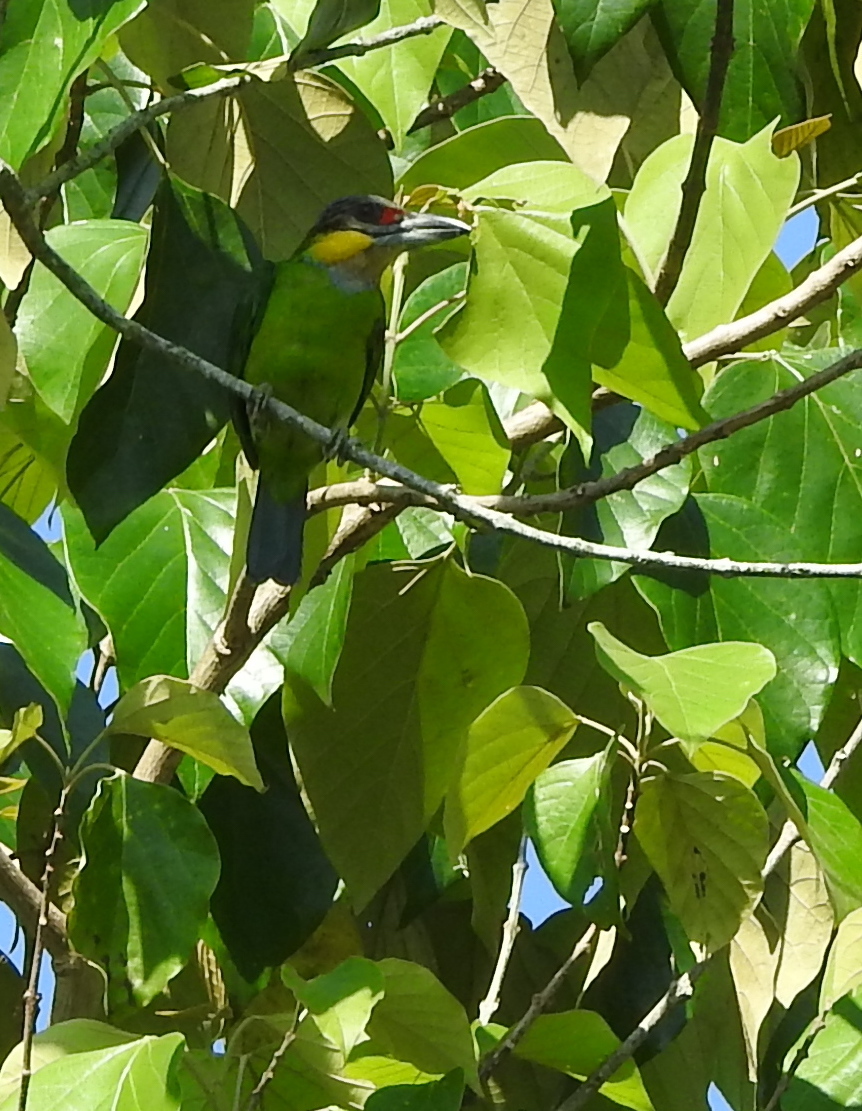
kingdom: Animalia
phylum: Chordata
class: Aves
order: Piciformes
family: Megalaimidae
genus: Psilopogon
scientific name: Psilopogon chrysopogon
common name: Golden-whiskered barbet
